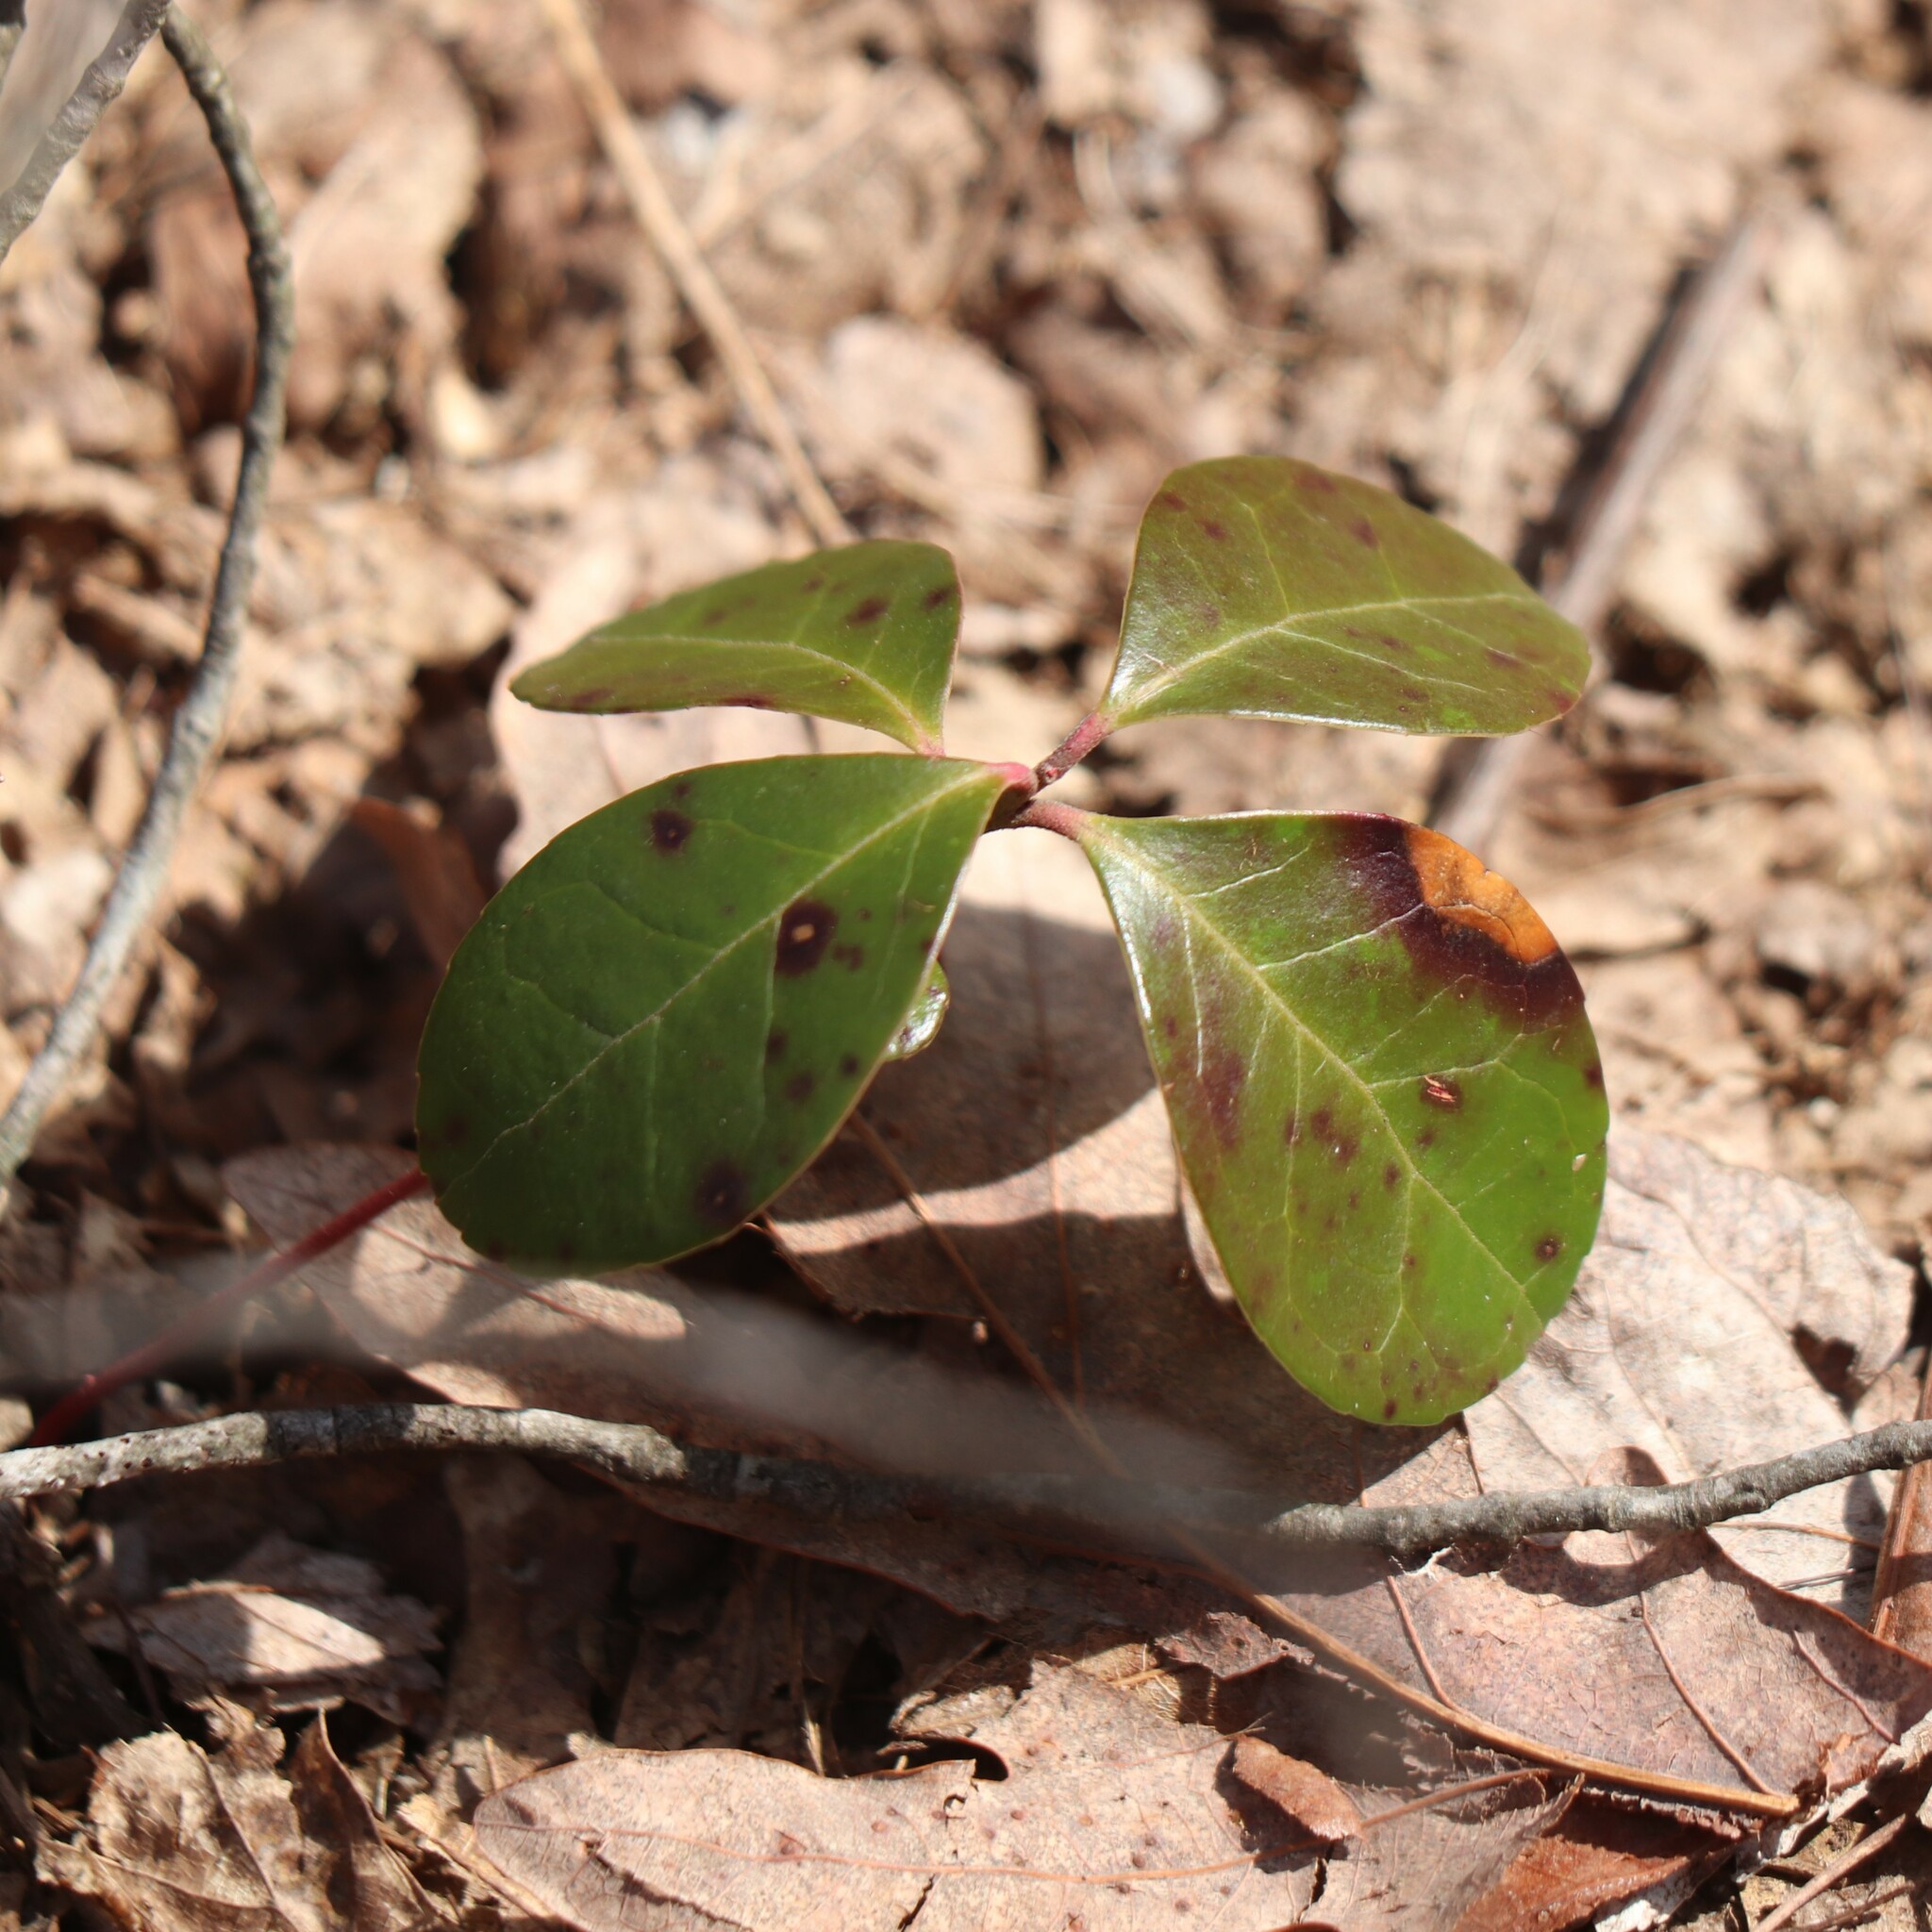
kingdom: Plantae
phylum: Tracheophyta
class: Magnoliopsida
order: Ericales
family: Ericaceae
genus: Gaultheria
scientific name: Gaultheria procumbens
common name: Checkerberry
